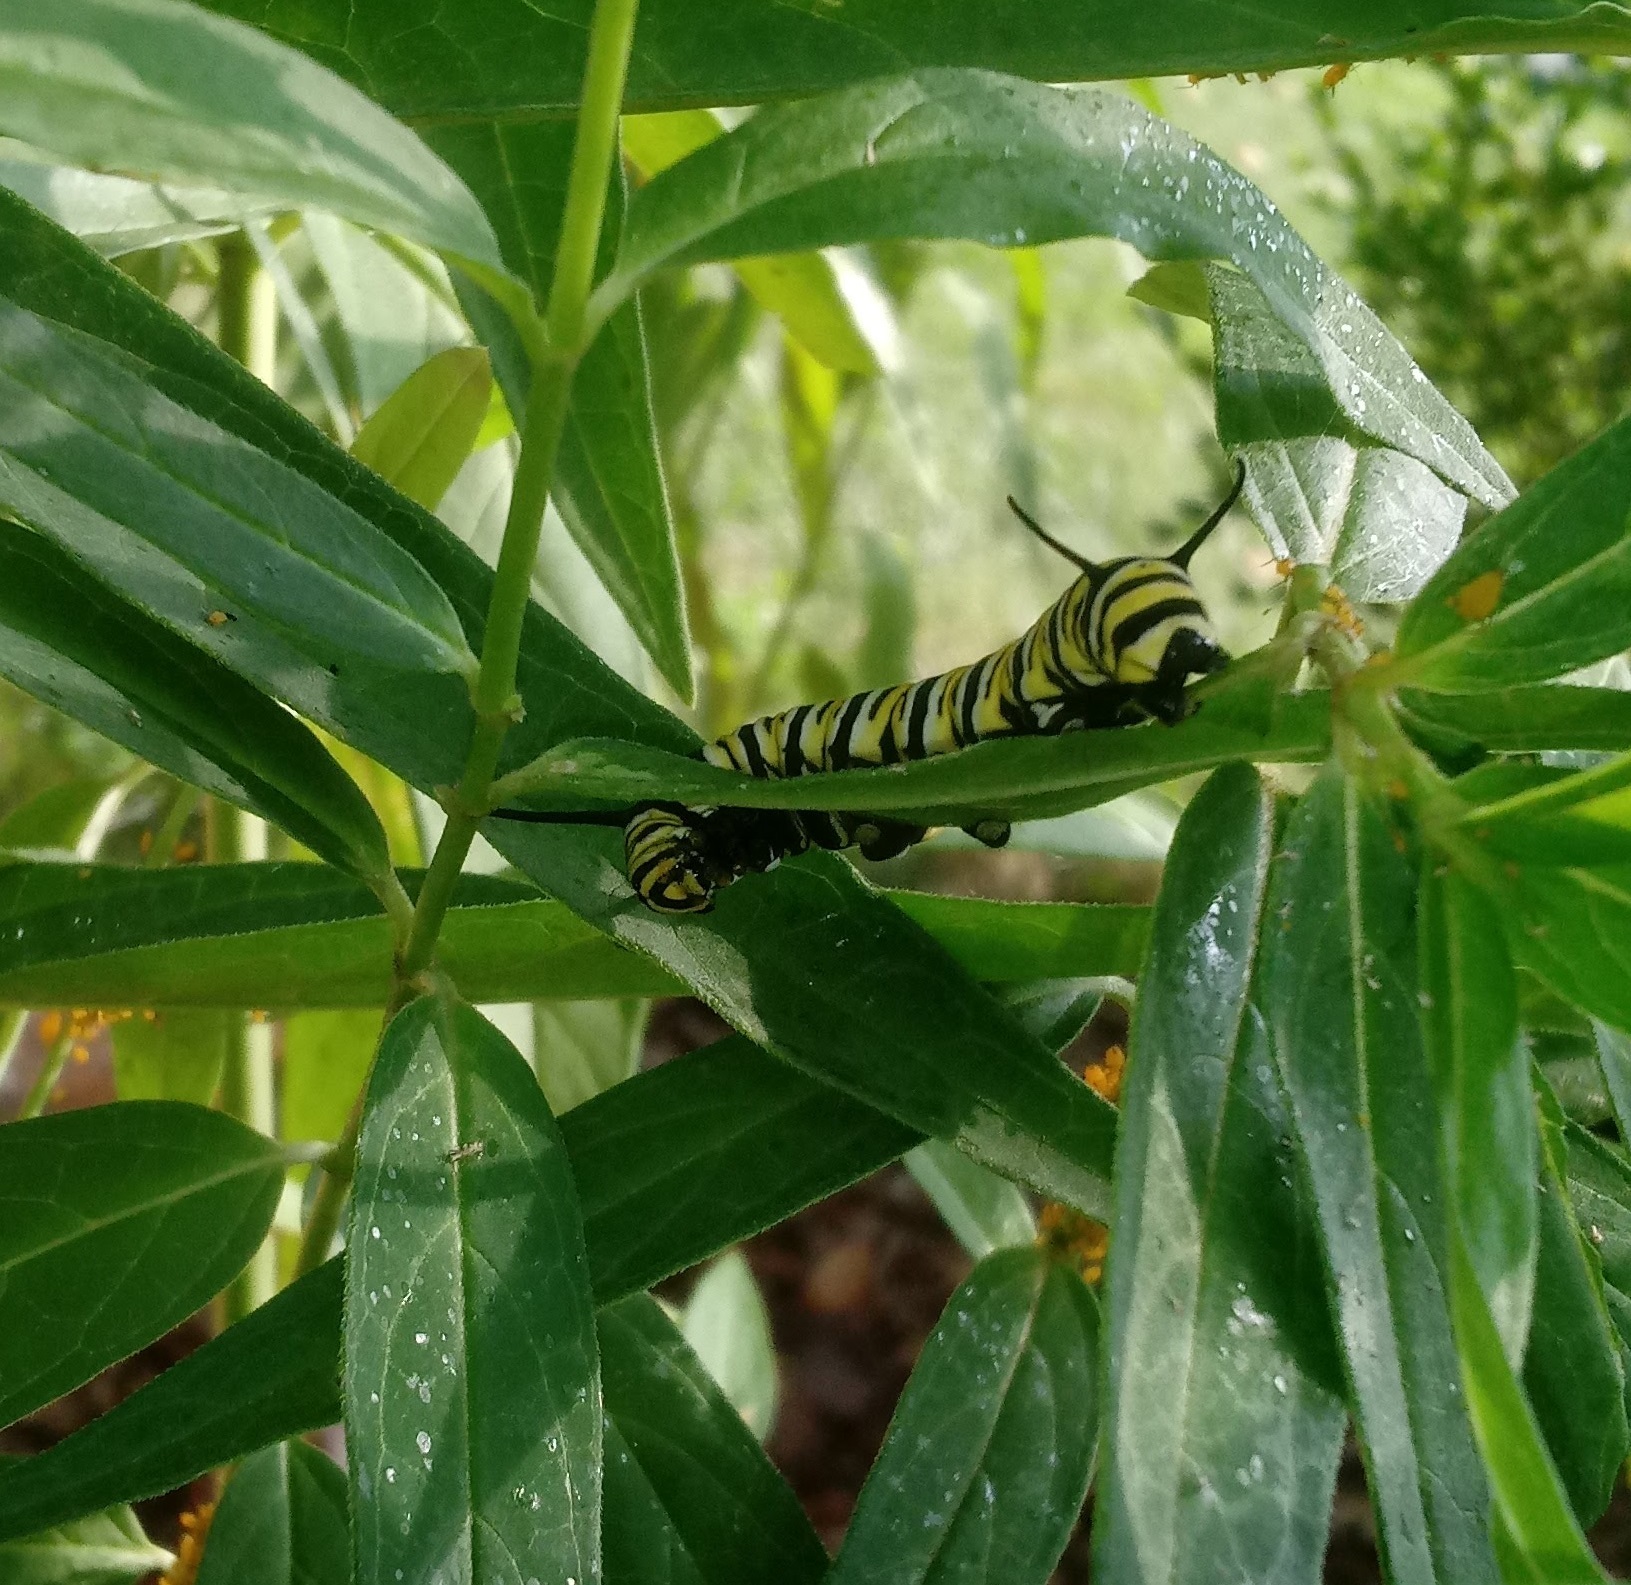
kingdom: Animalia
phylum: Arthropoda
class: Insecta
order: Lepidoptera
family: Nymphalidae
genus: Danaus
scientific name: Danaus plexippus
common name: Monarch
